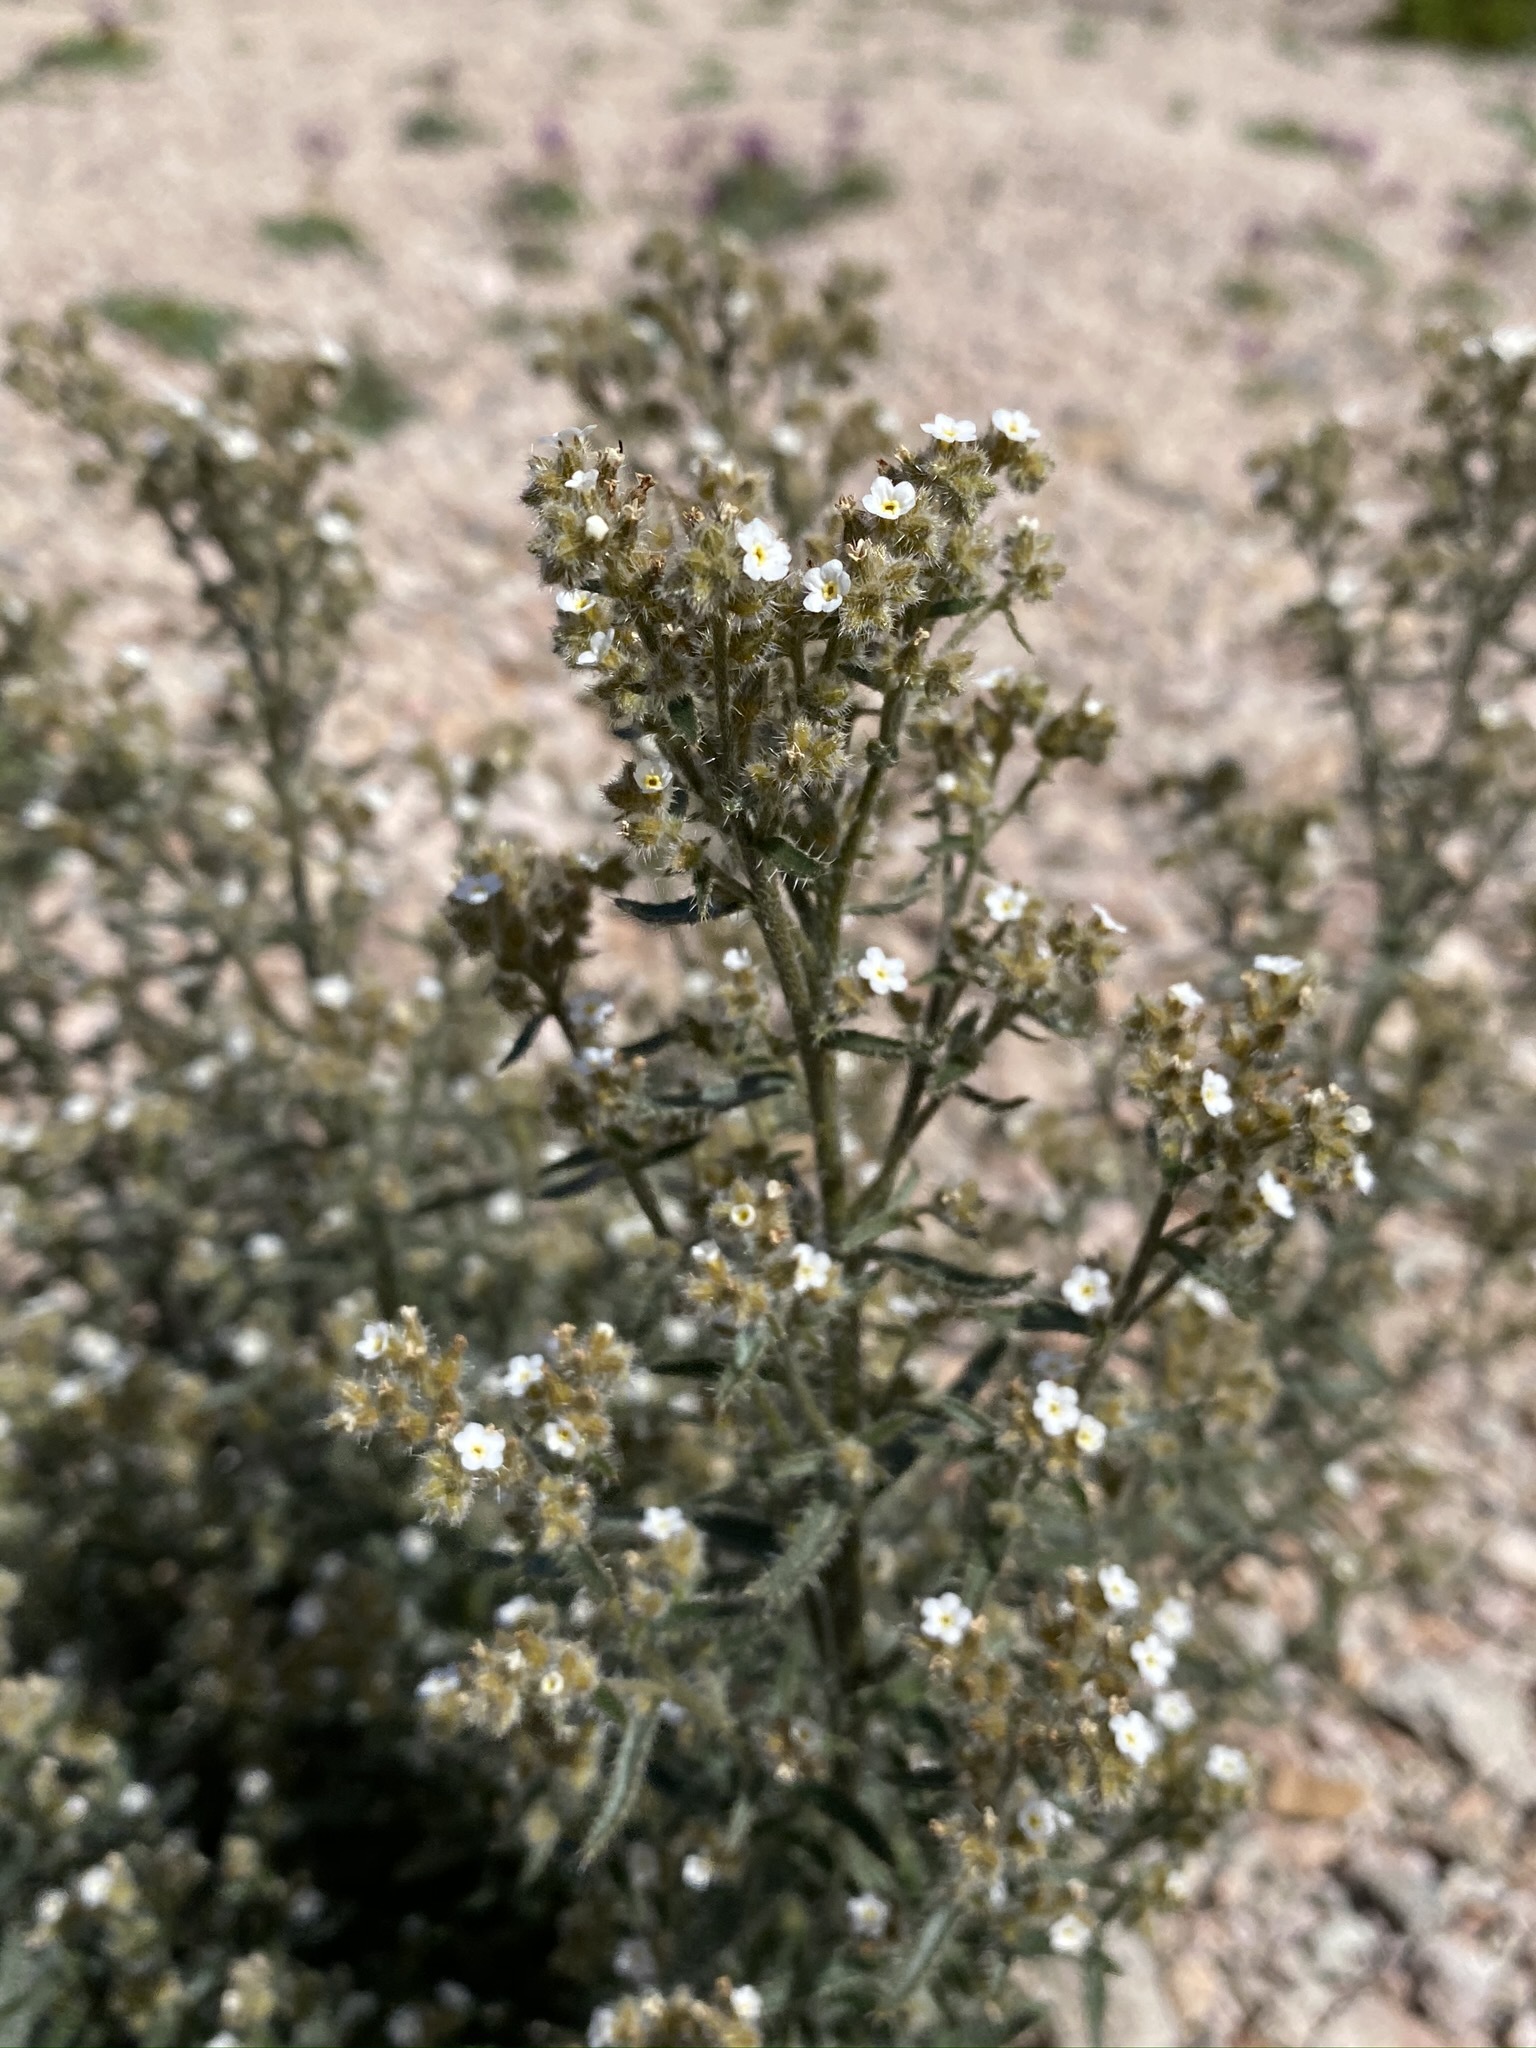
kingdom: Plantae
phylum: Tracheophyta
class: Magnoliopsida
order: Boraginales
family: Boraginaceae
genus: Johnstonella
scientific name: Johnstonella holoptera
